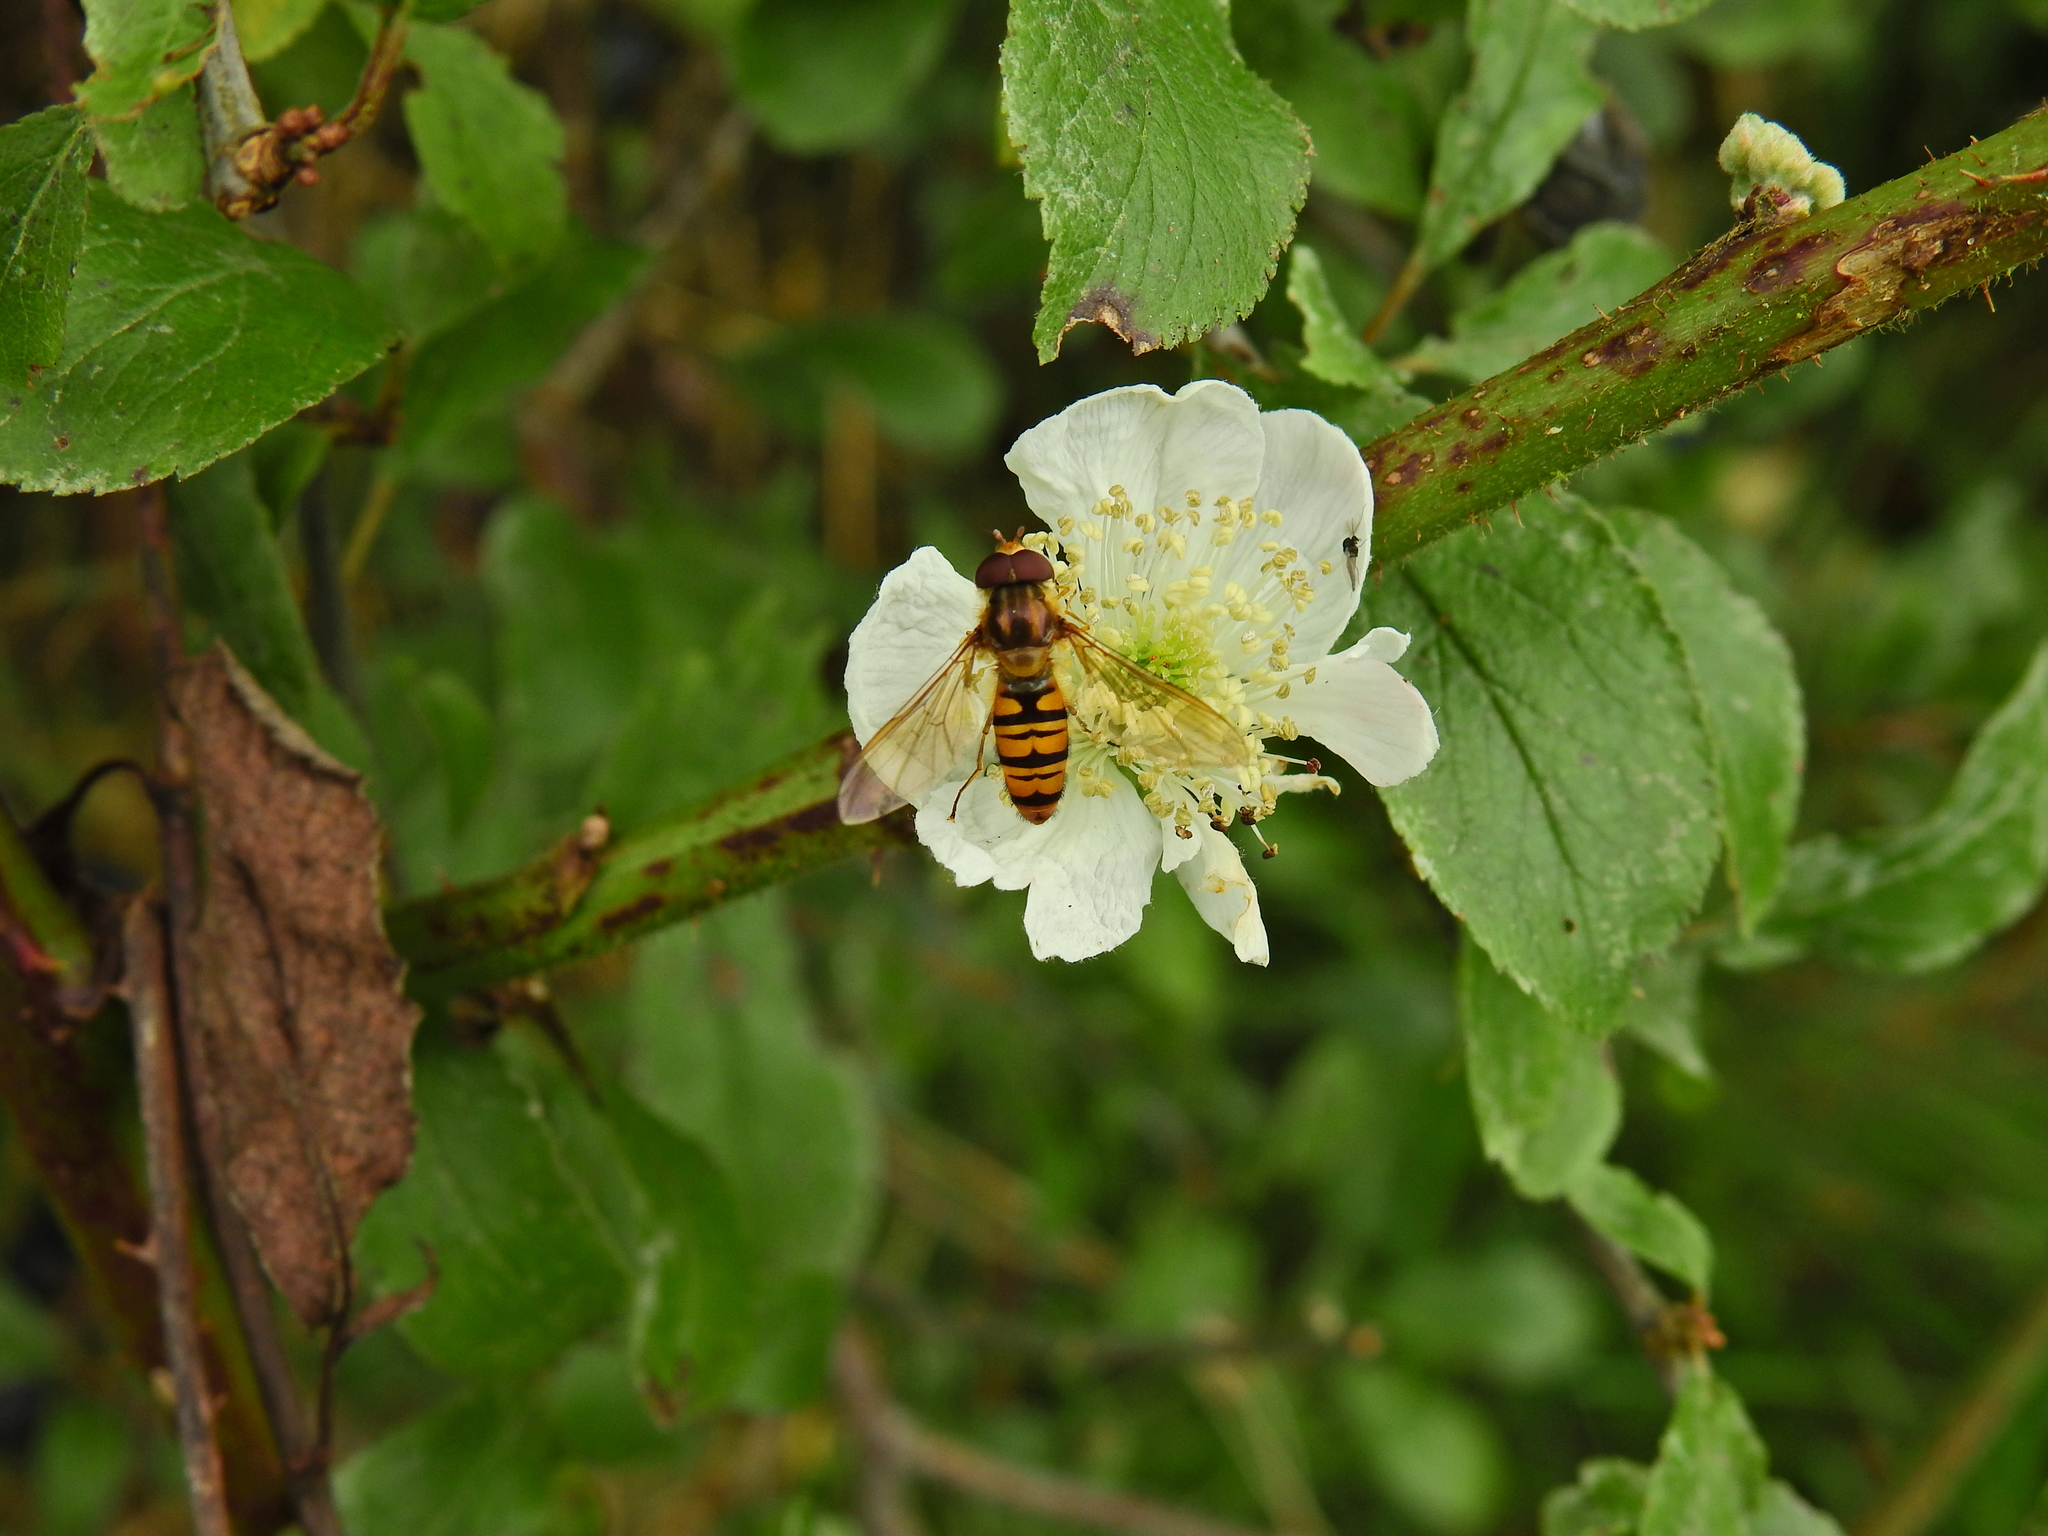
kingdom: Animalia
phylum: Arthropoda
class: Insecta
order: Diptera
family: Syrphidae
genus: Episyrphus
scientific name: Episyrphus balteatus
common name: Marmalade hoverfly
